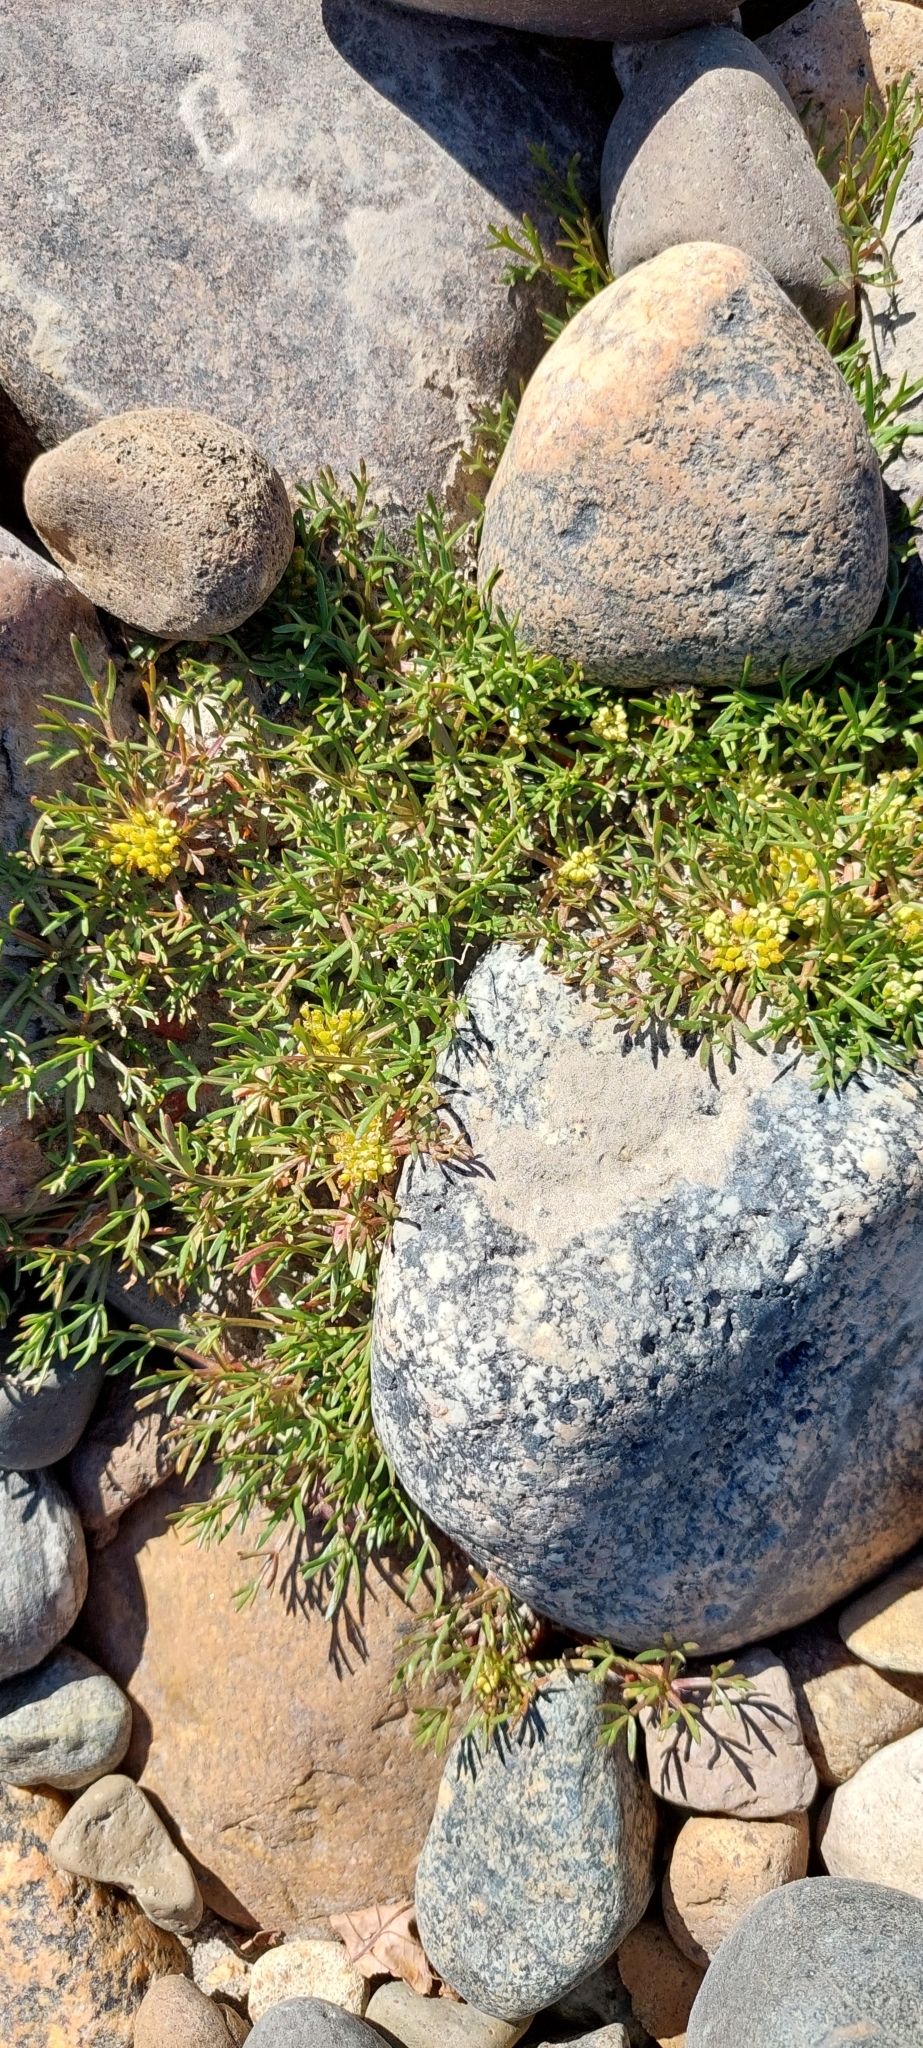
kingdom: Plantae
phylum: Tracheophyta
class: Magnoliopsida
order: Apiales
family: Apiaceae
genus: Azorella
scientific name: Azorella trifoliolata
